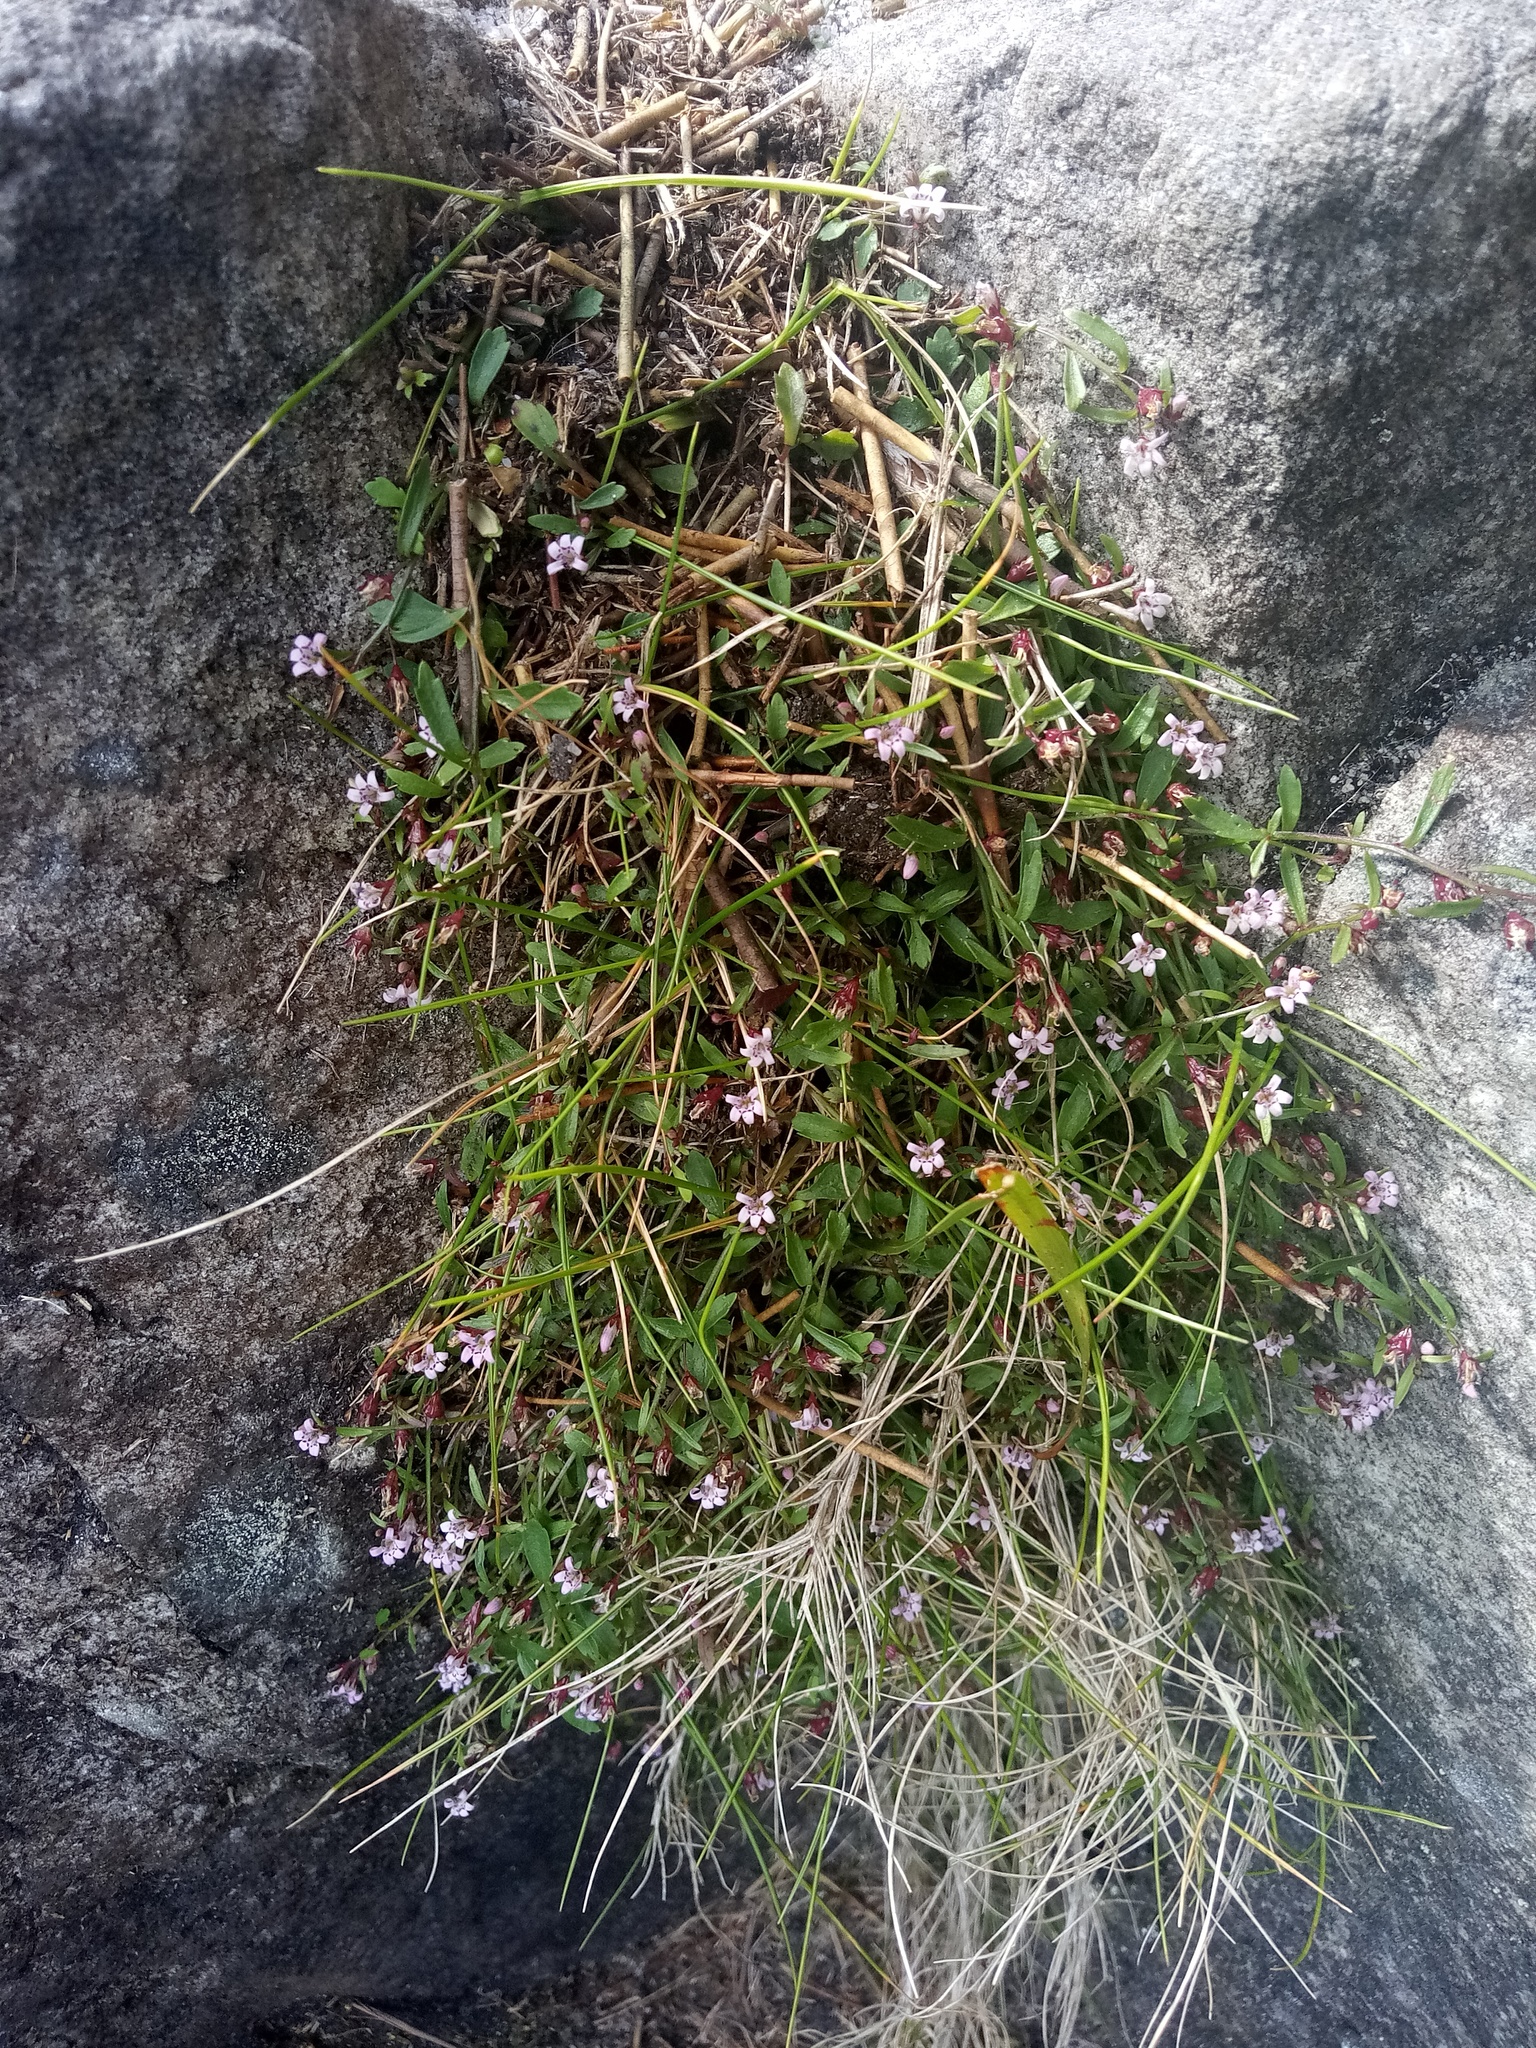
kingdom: Plantae
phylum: Tracheophyta
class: Magnoliopsida
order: Asterales
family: Campanulaceae
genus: Lobelia
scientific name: Lobelia eckloniana
